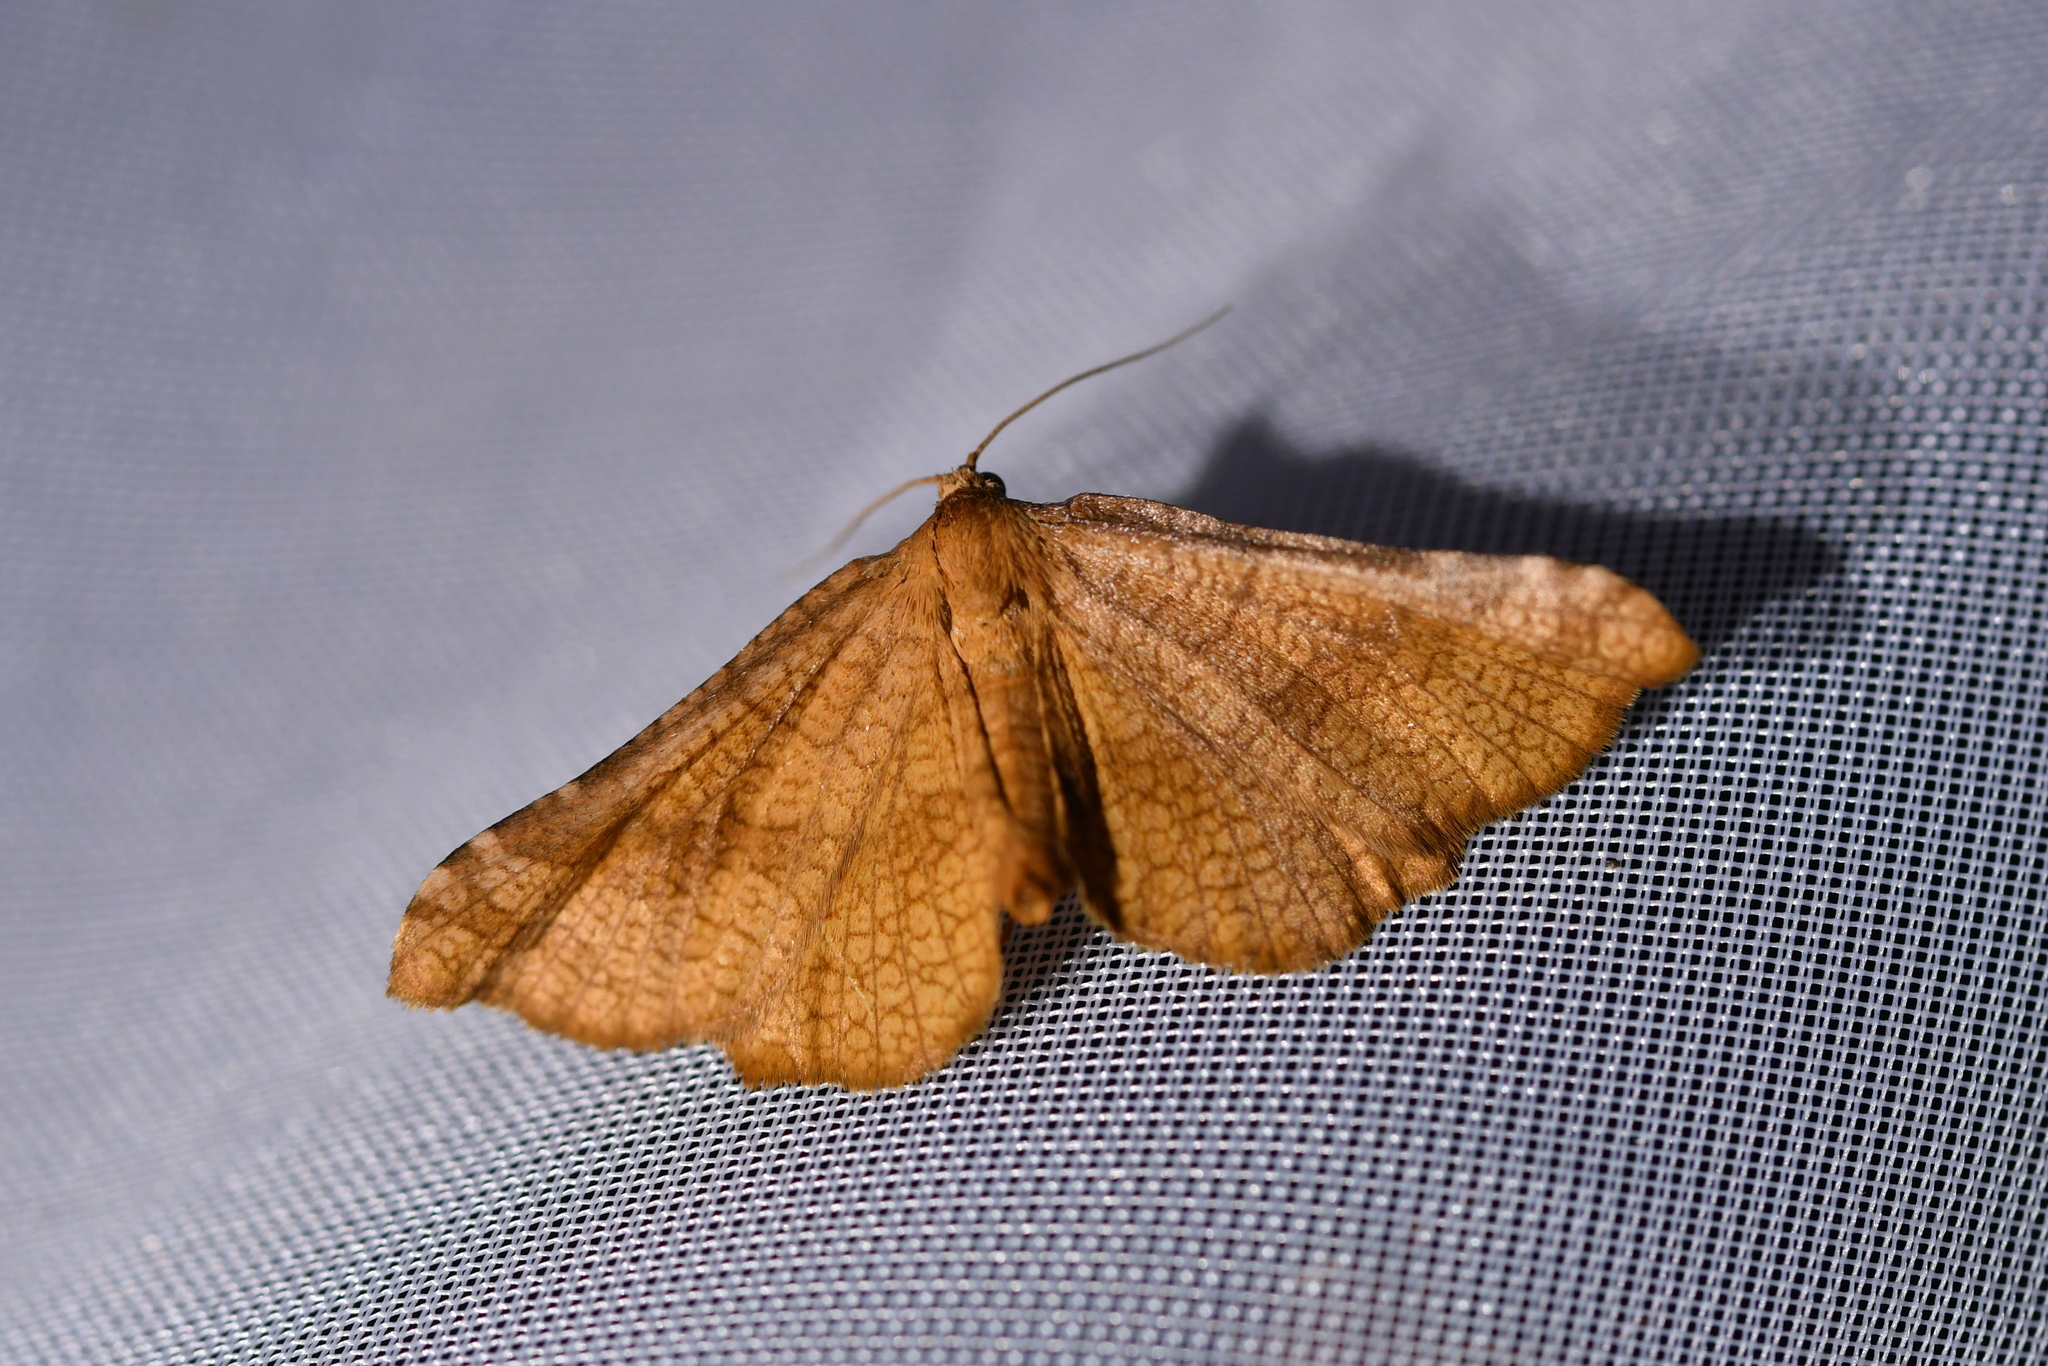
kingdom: Animalia
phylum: Arthropoda
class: Insecta
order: Lepidoptera
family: Thyrididae
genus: Morova
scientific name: Morova subfasciata
